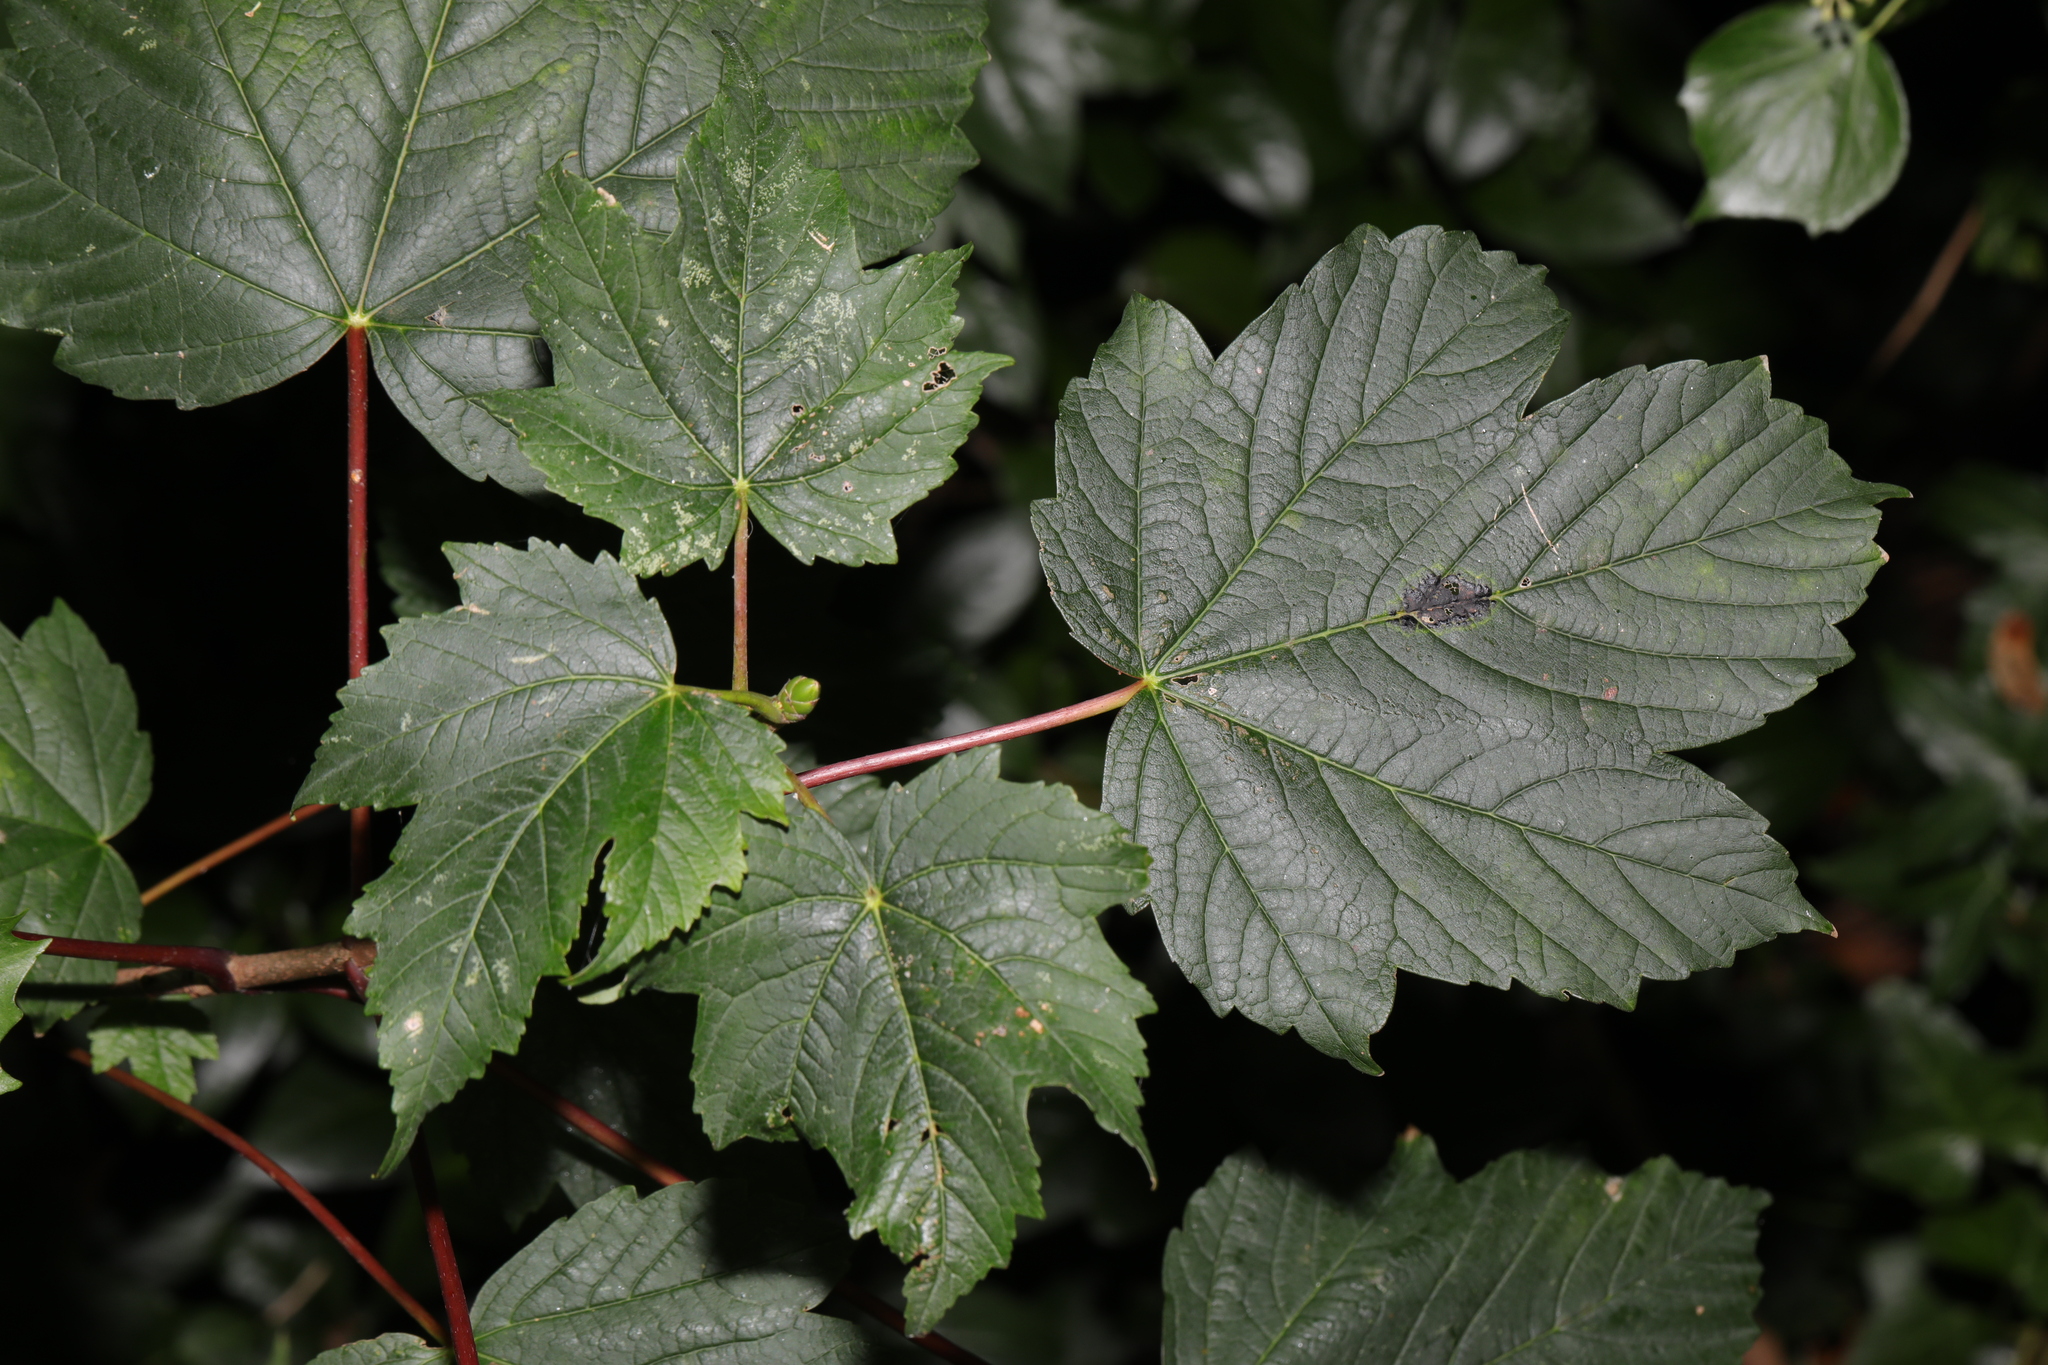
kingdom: Plantae
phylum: Tracheophyta
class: Magnoliopsida
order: Sapindales
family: Sapindaceae
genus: Acer
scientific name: Acer pseudoplatanus
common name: Sycamore
